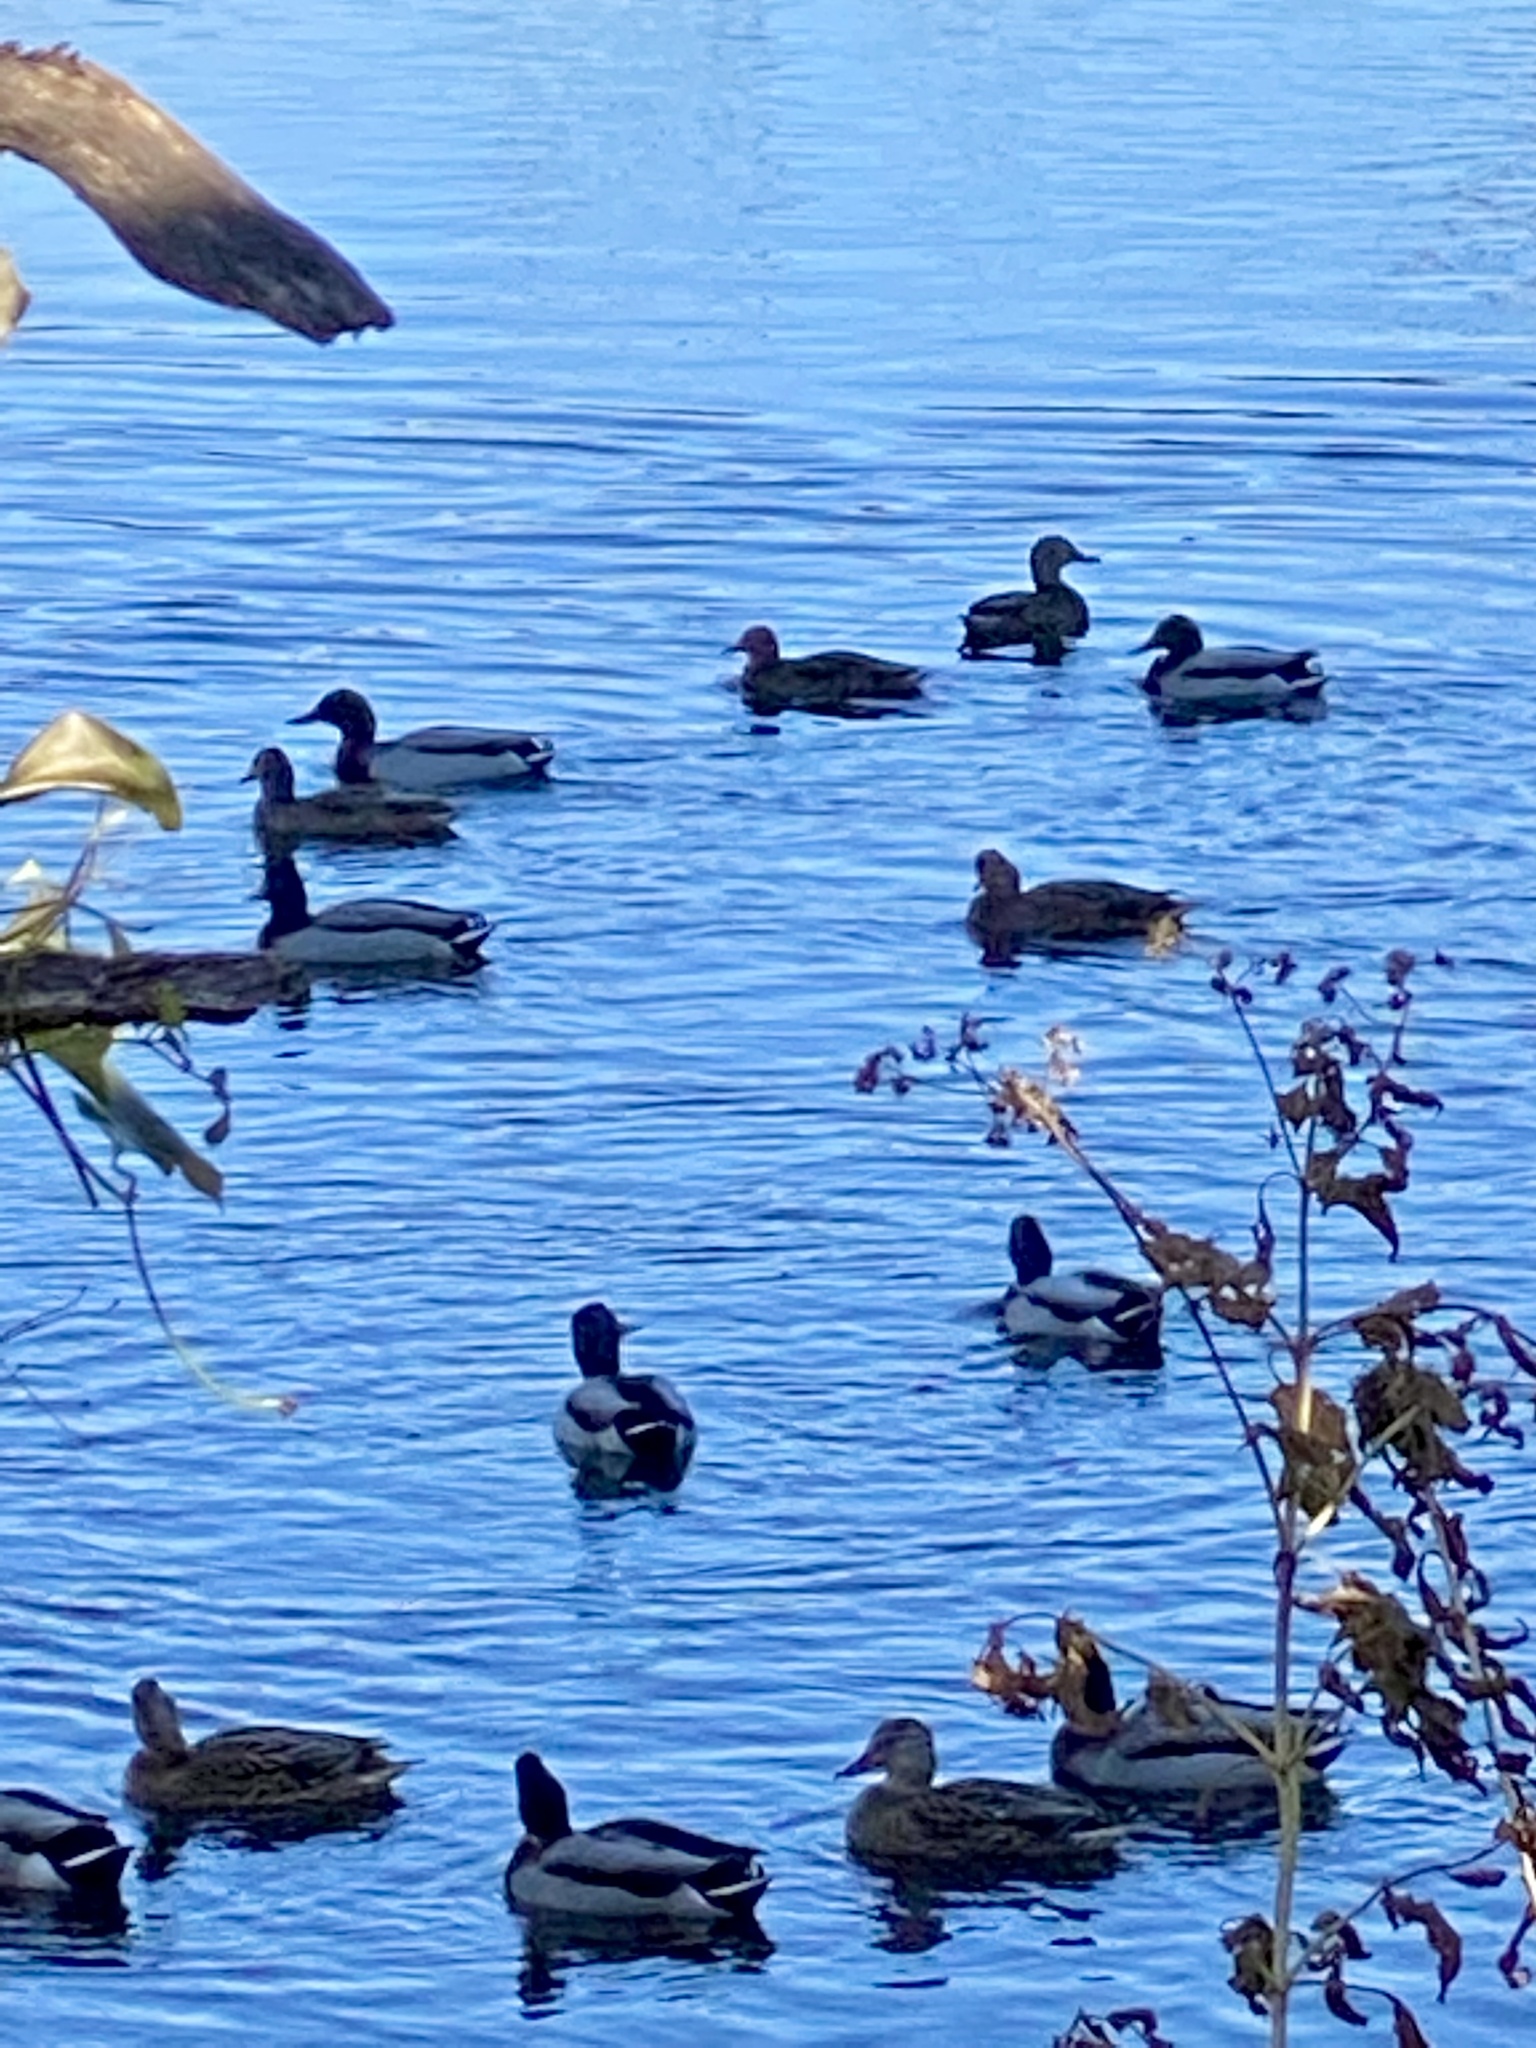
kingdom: Animalia
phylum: Chordata
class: Aves
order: Anseriformes
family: Anatidae
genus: Anas
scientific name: Anas platyrhynchos
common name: Mallard
